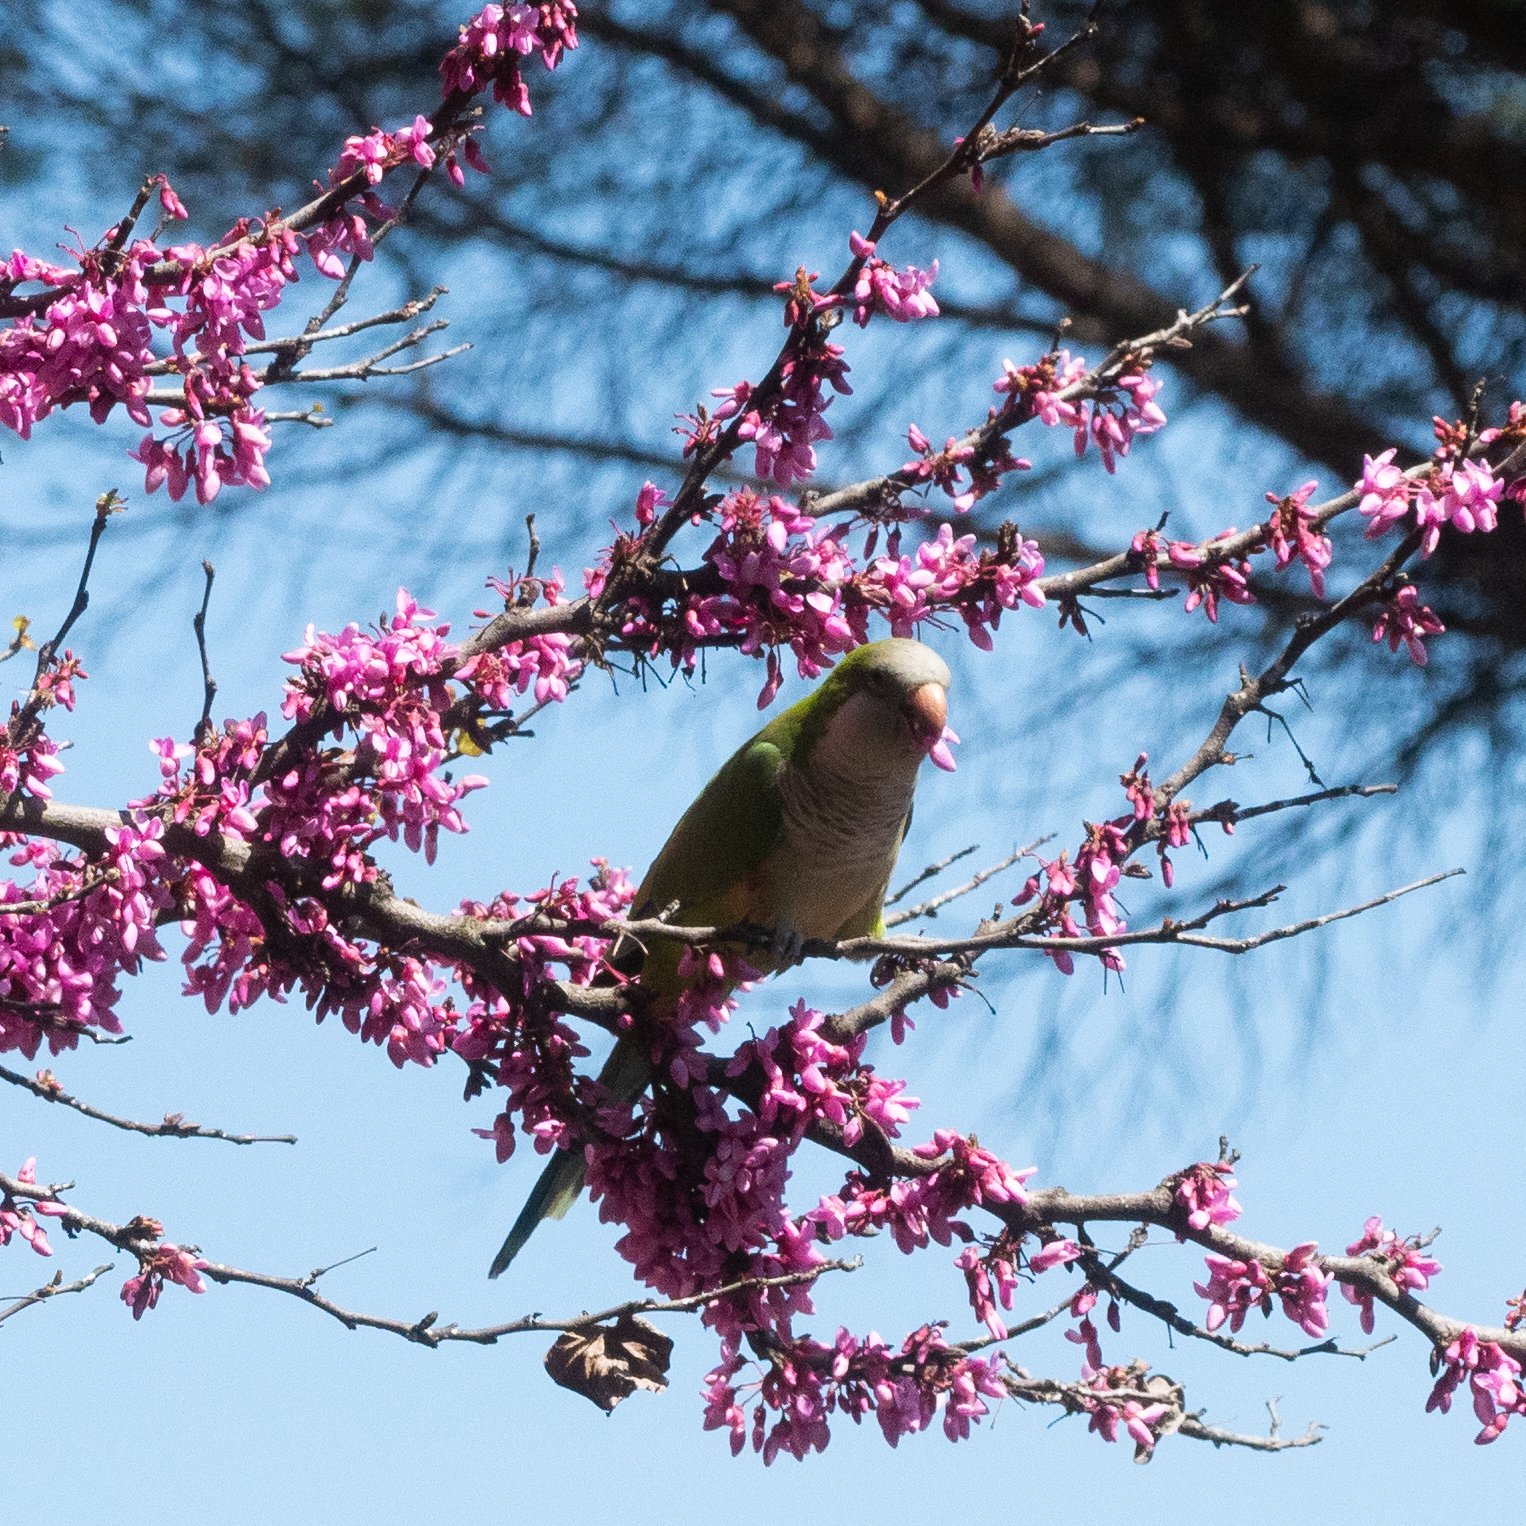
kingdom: Animalia
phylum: Chordata
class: Aves
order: Psittaciformes
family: Psittacidae
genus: Myiopsitta
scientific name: Myiopsitta monachus
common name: Monk parakeet
